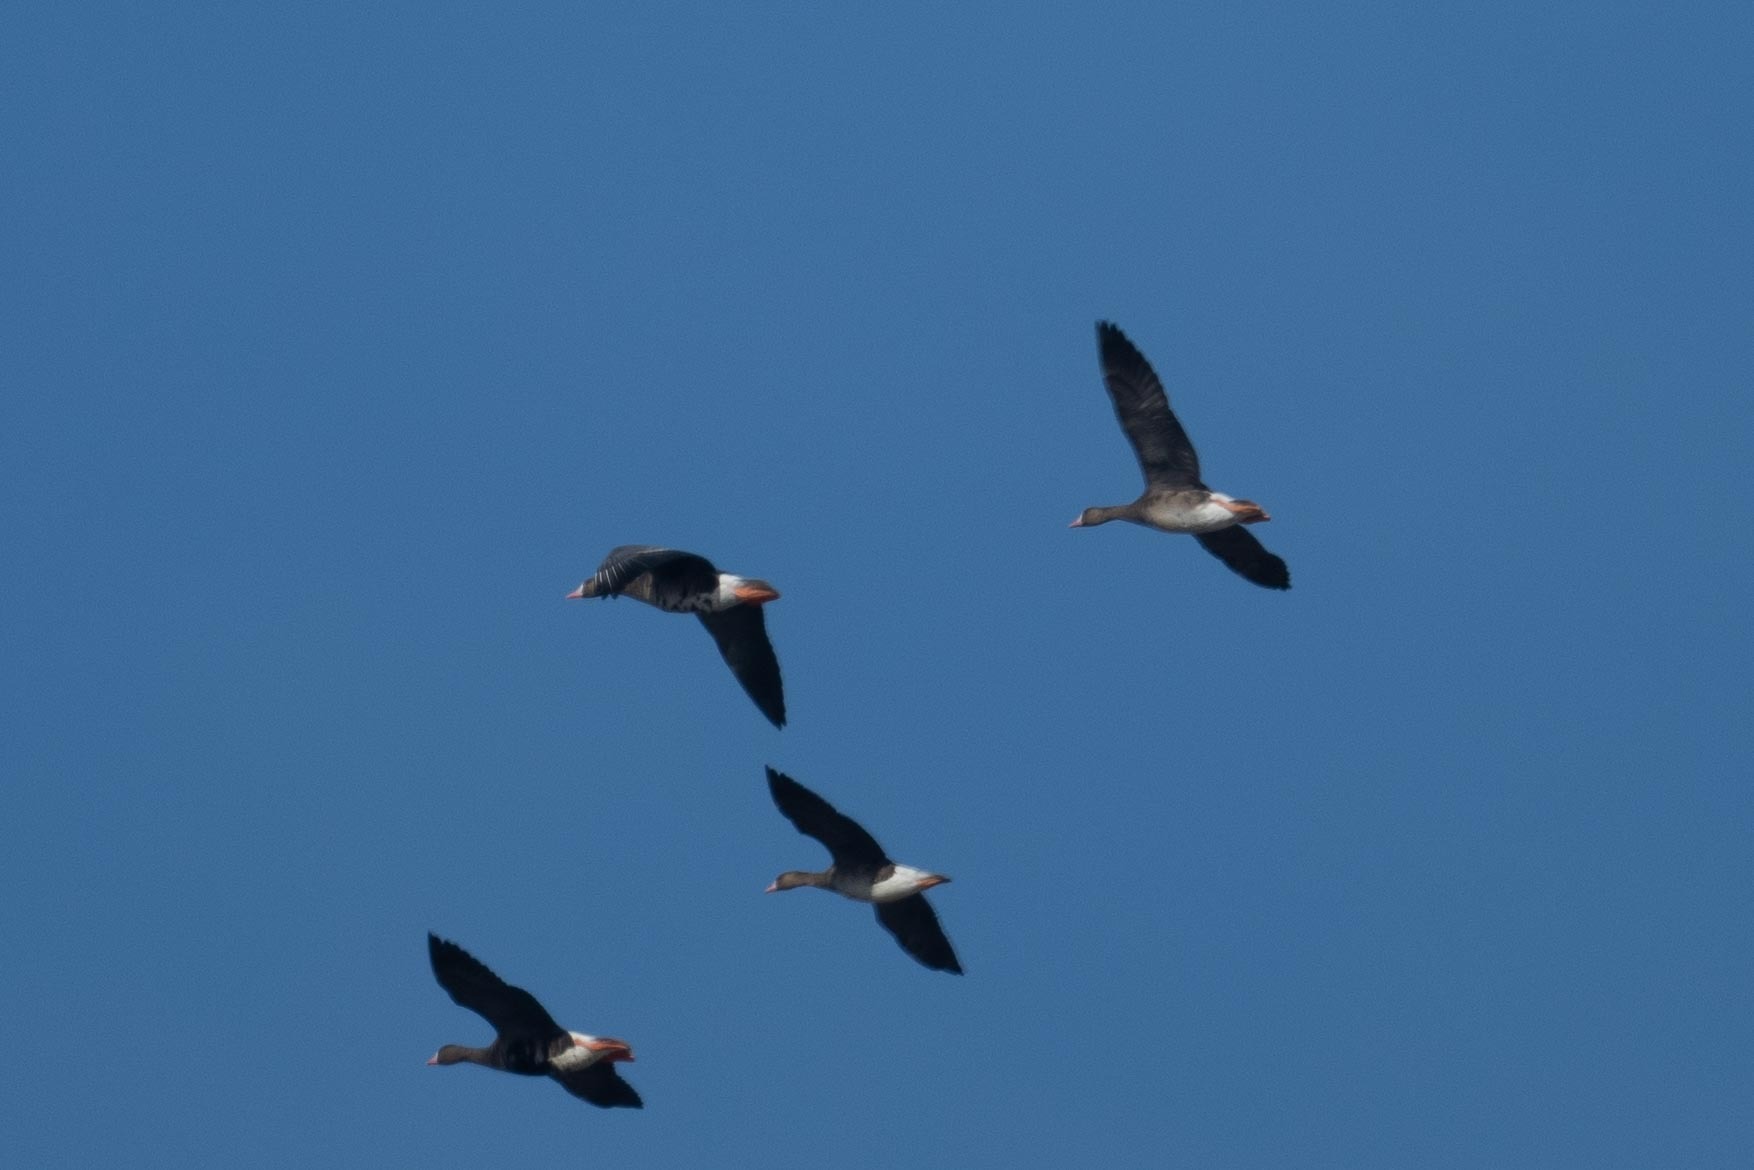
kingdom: Animalia
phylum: Chordata
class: Aves
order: Anseriformes
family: Anatidae
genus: Anser
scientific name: Anser albifrons
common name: Greater white-fronted goose
